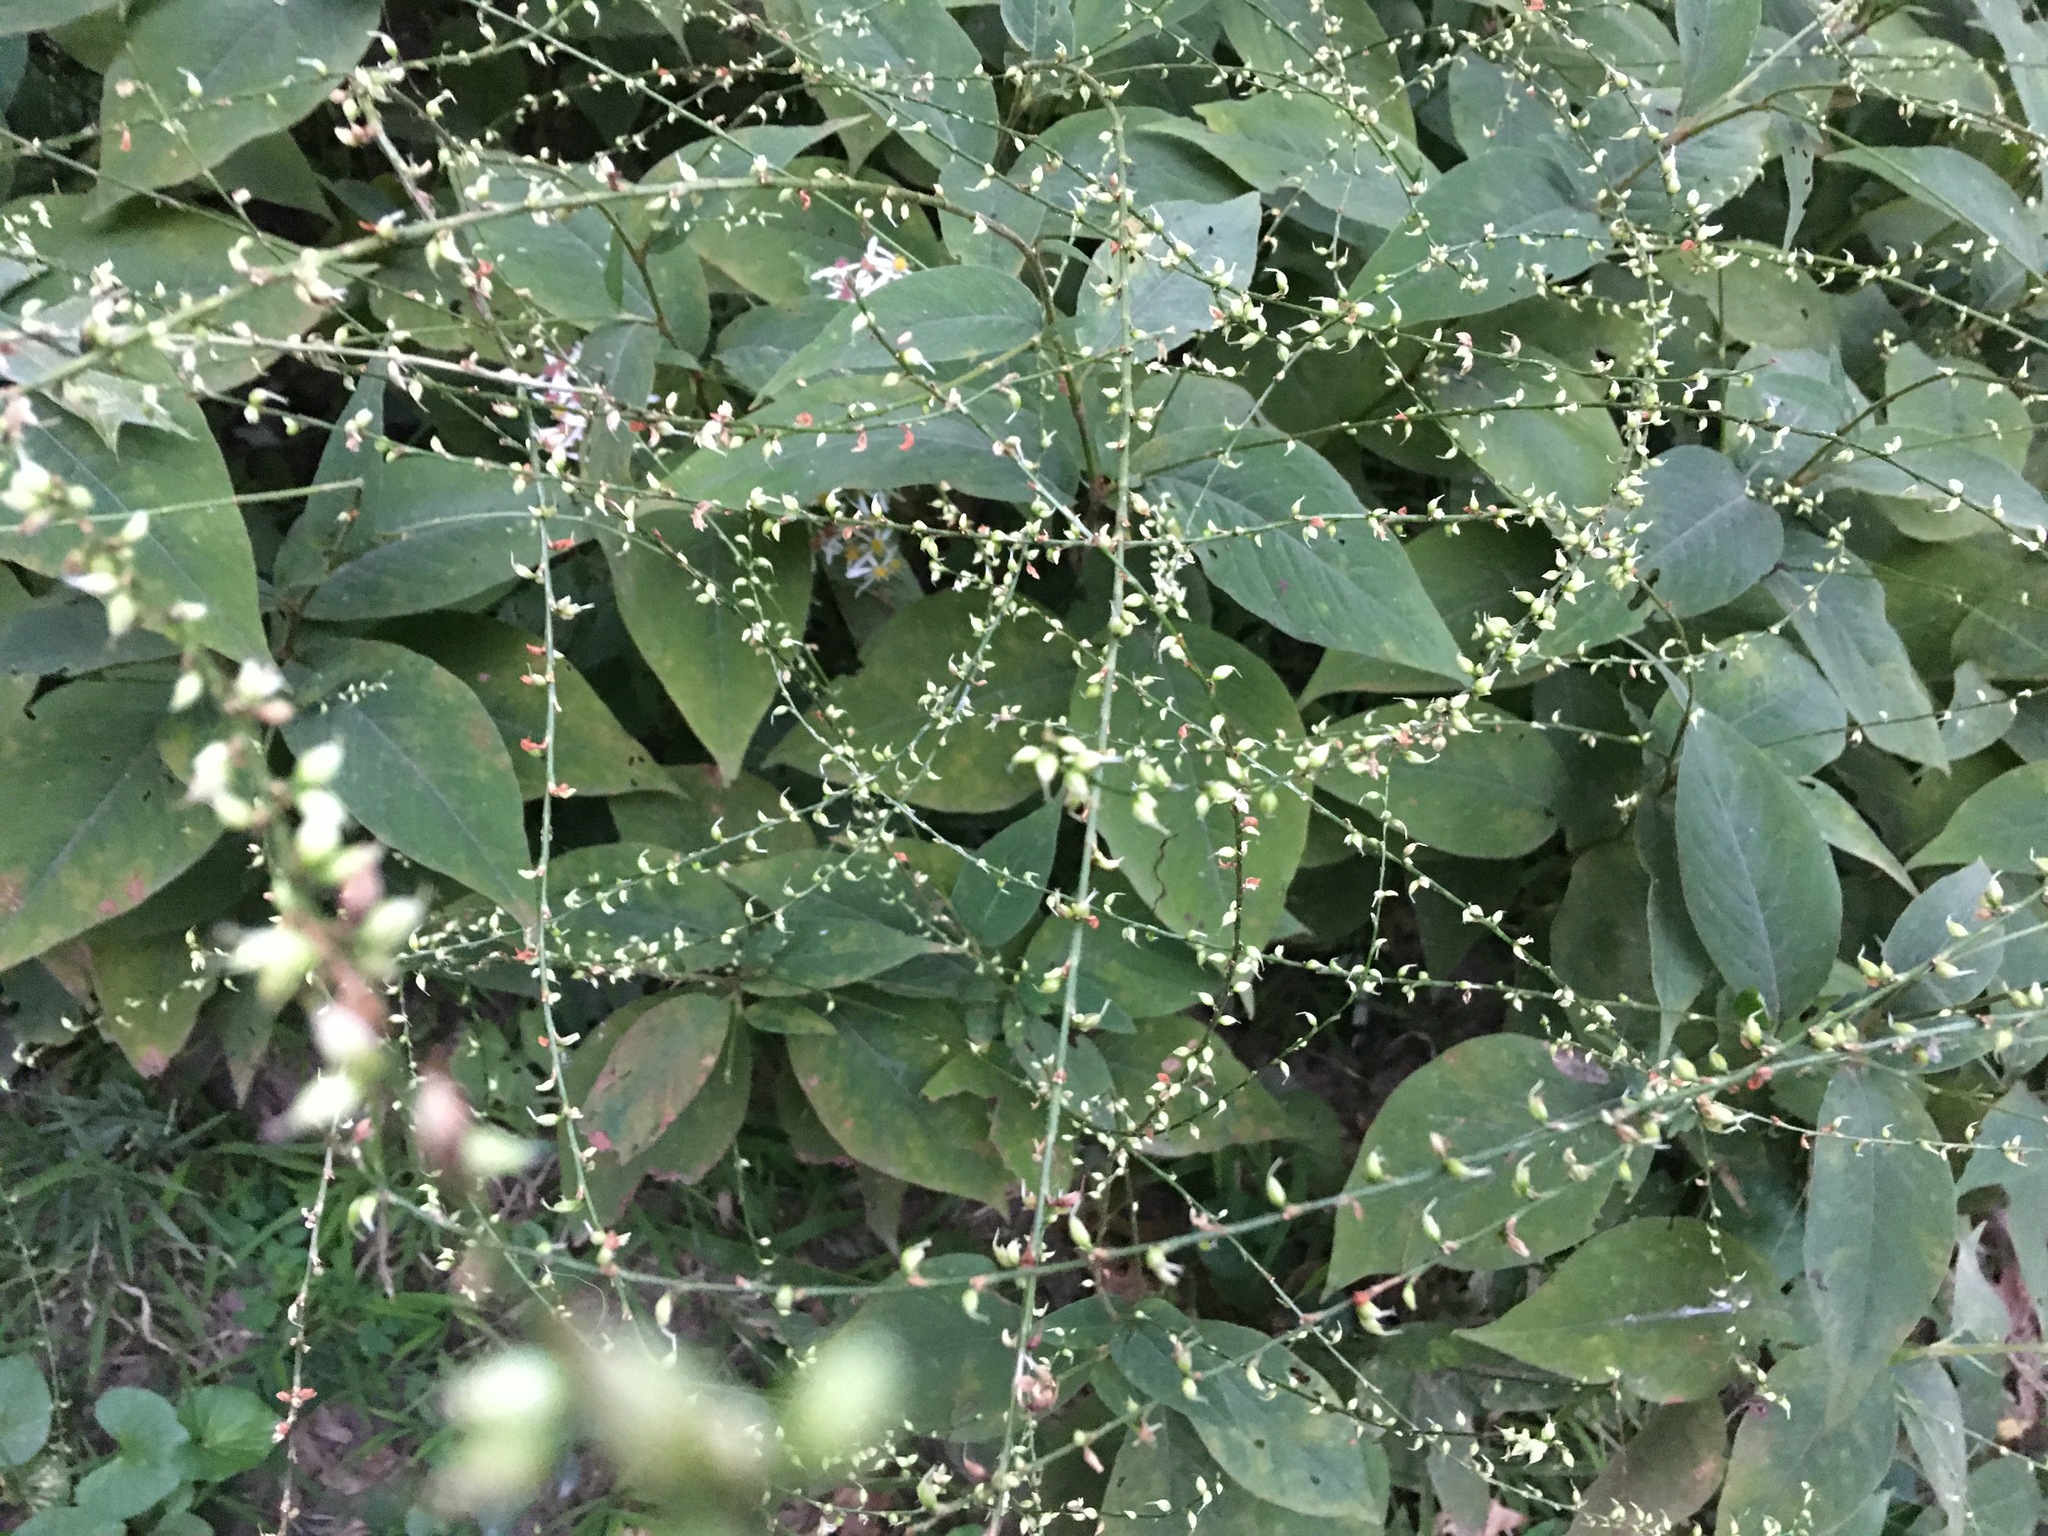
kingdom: Plantae
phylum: Tracheophyta
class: Magnoliopsida
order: Caryophyllales
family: Polygonaceae
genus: Persicaria
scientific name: Persicaria virginiana
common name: Jumpseed
